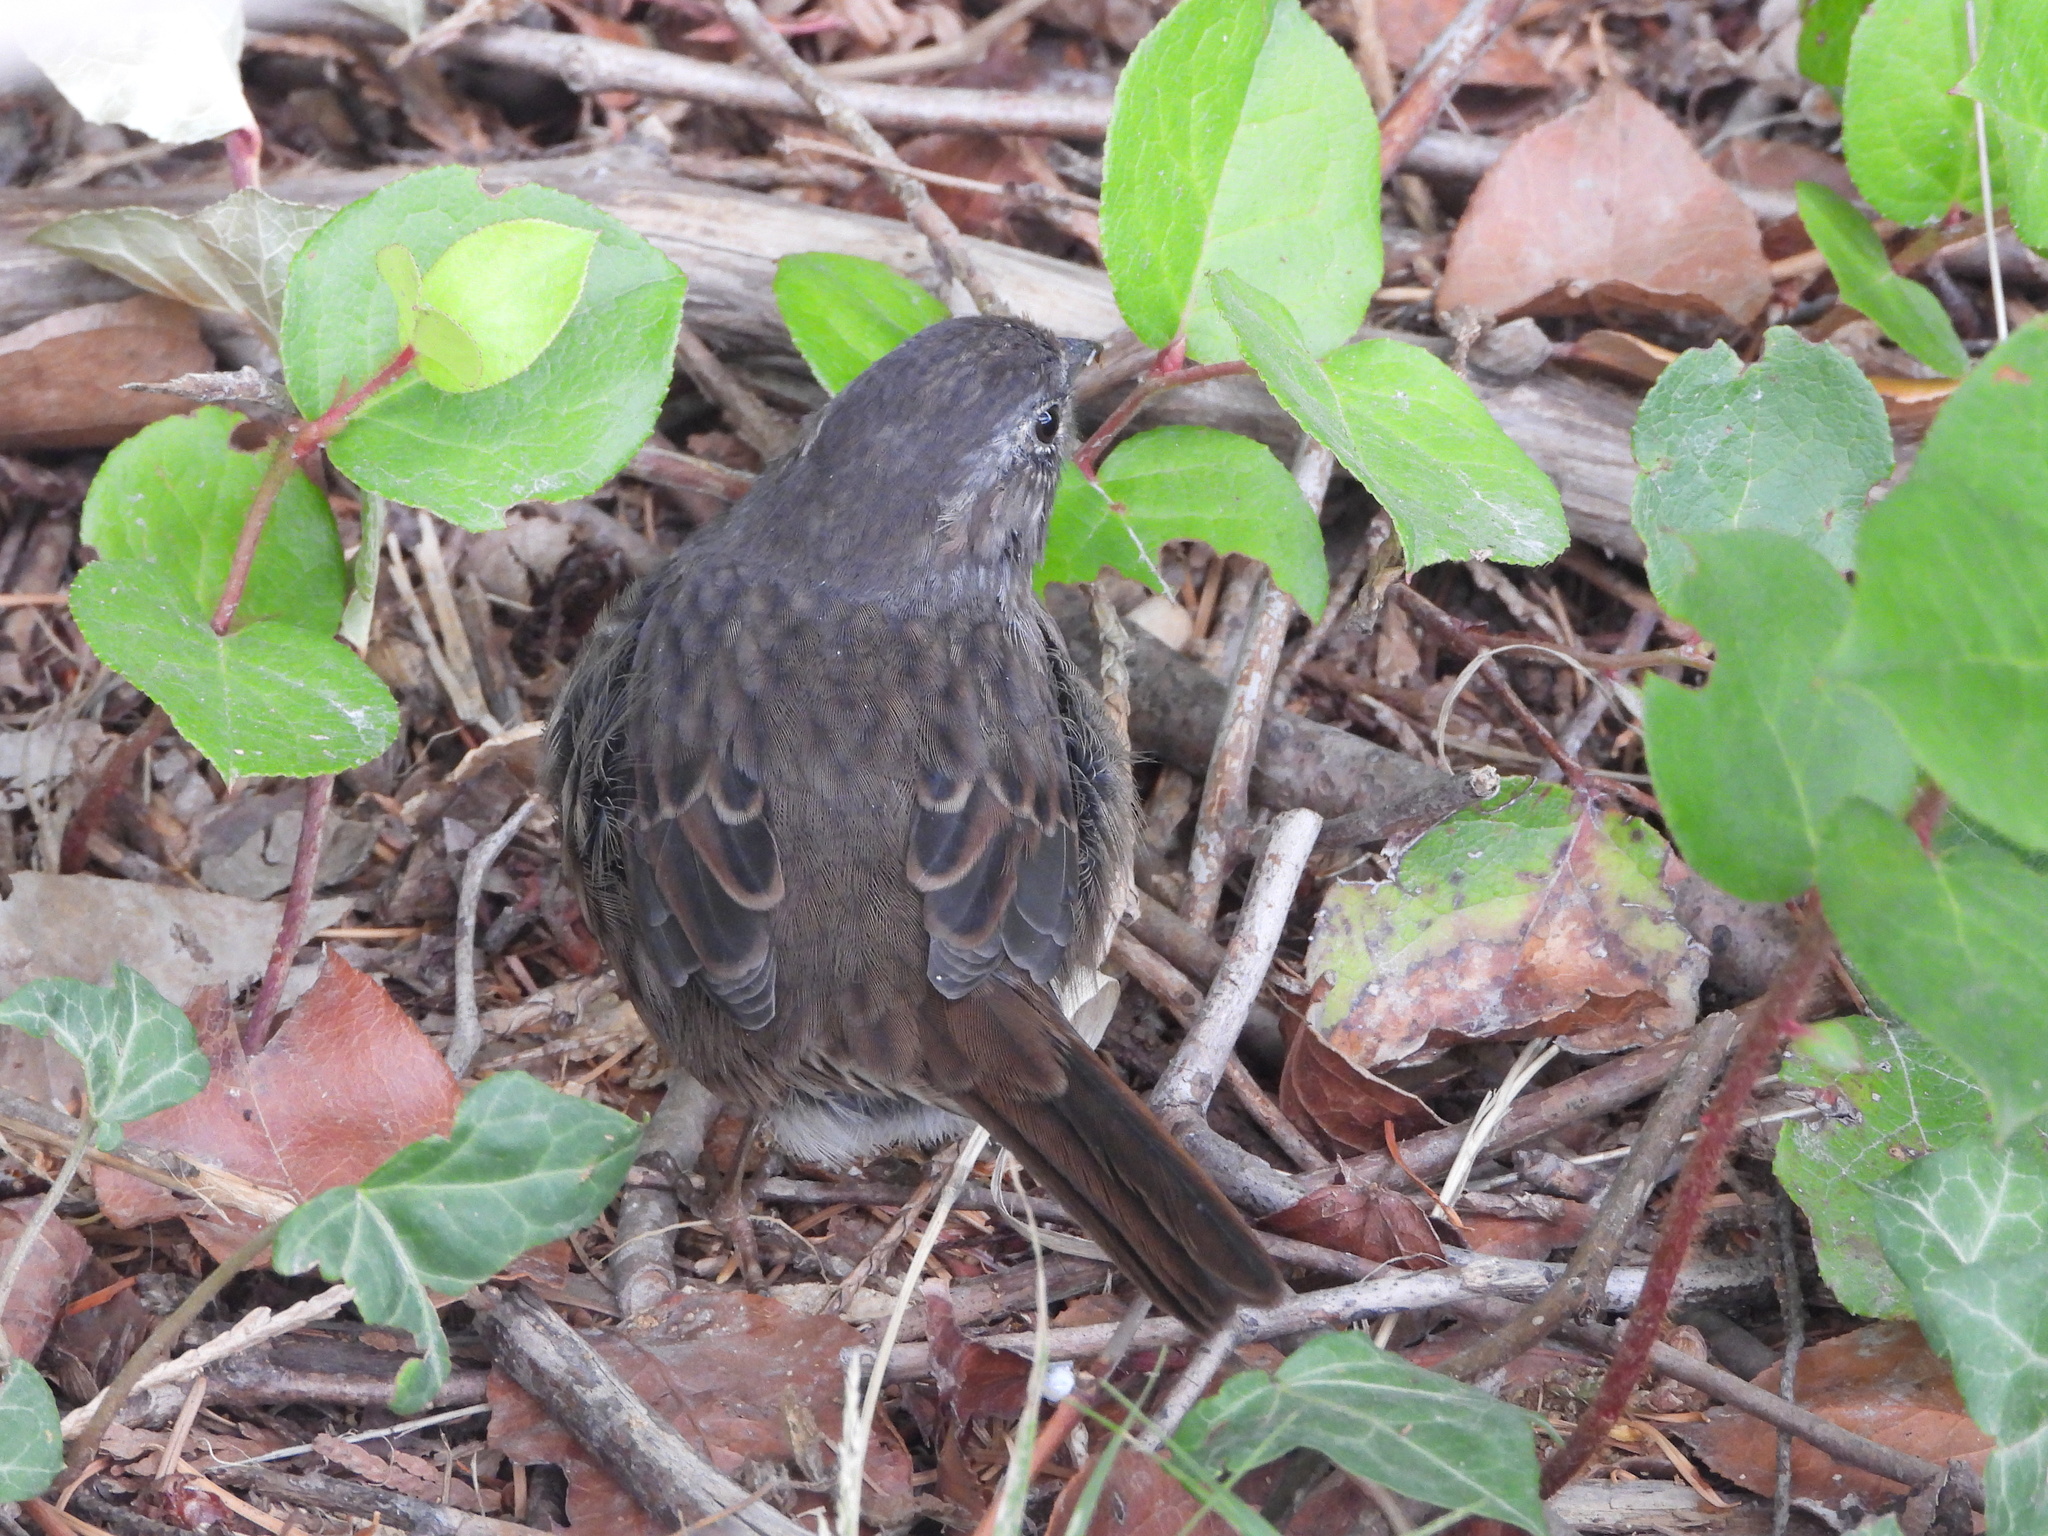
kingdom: Animalia
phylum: Chordata
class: Aves
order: Passeriformes
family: Passerellidae
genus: Melospiza
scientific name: Melospiza melodia
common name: Song sparrow
